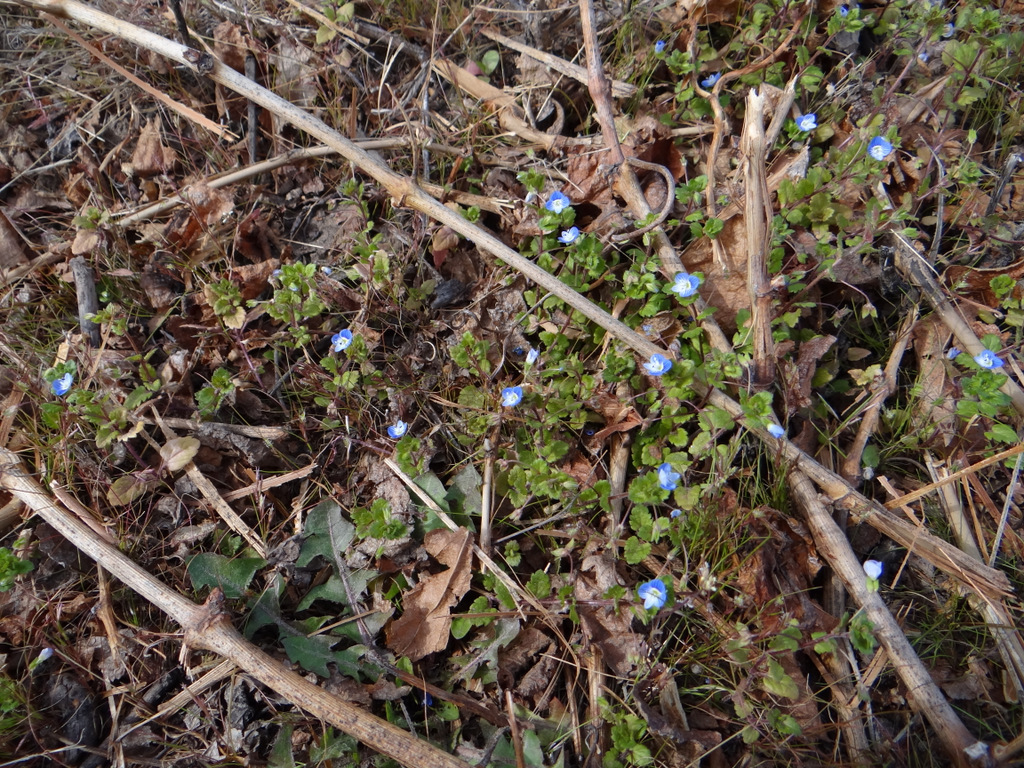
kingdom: Plantae
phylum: Tracheophyta
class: Magnoliopsida
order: Lamiales
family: Plantaginaceae
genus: Veronica
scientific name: Veronica persica
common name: Common field-speedwell
